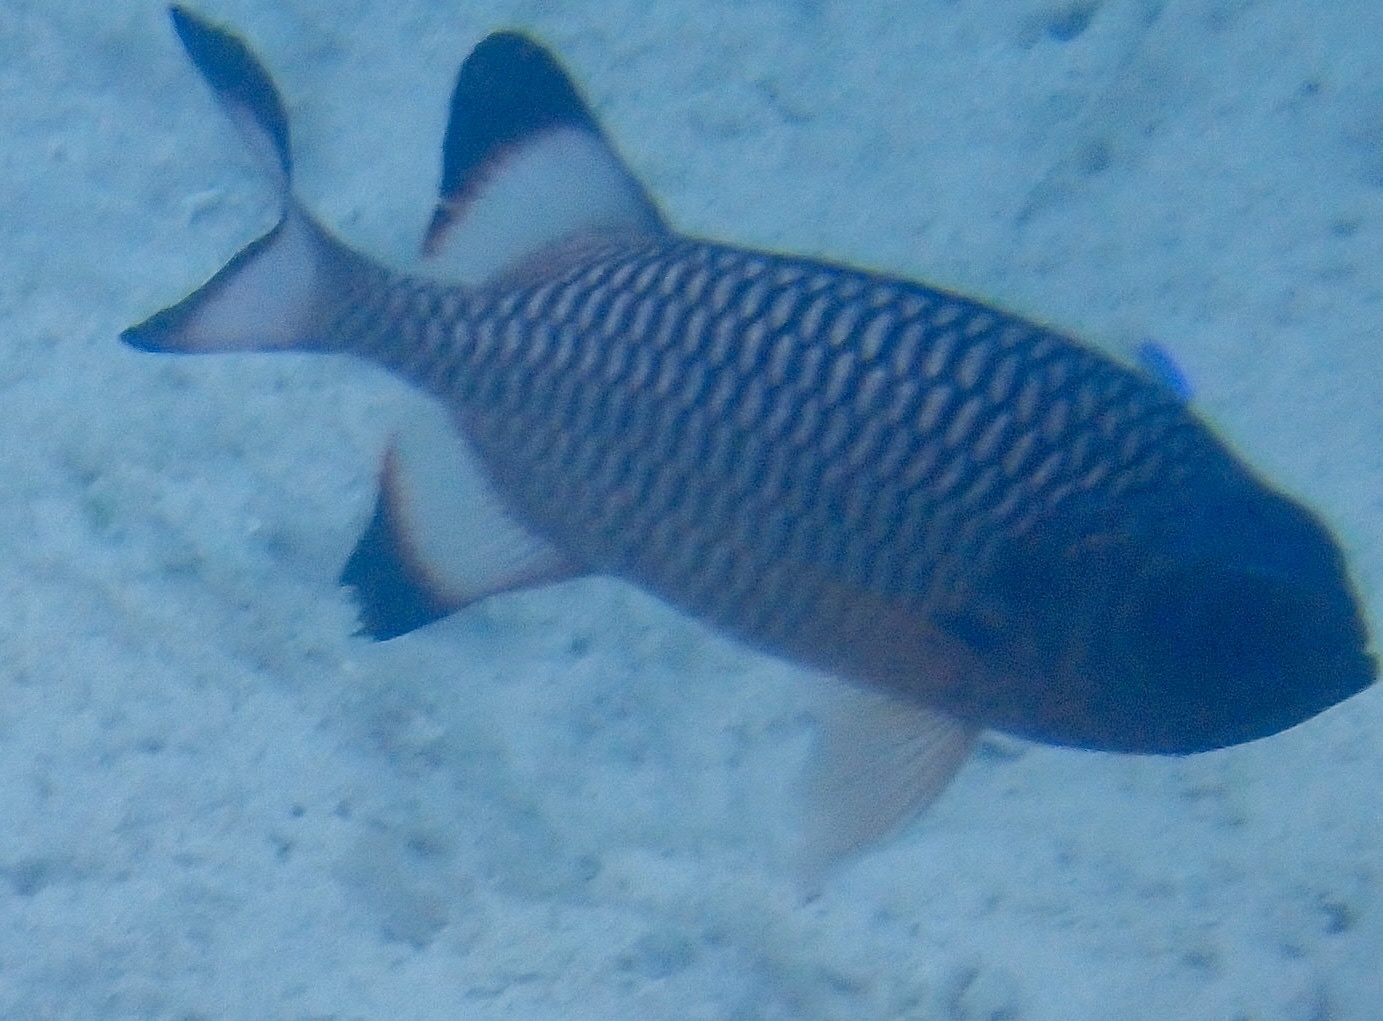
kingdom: Animalia
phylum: Chordata
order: Beryciformes
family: Holocentridae
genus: Myripristis
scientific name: Myripristis adusta
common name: Blackfin soldierfish
